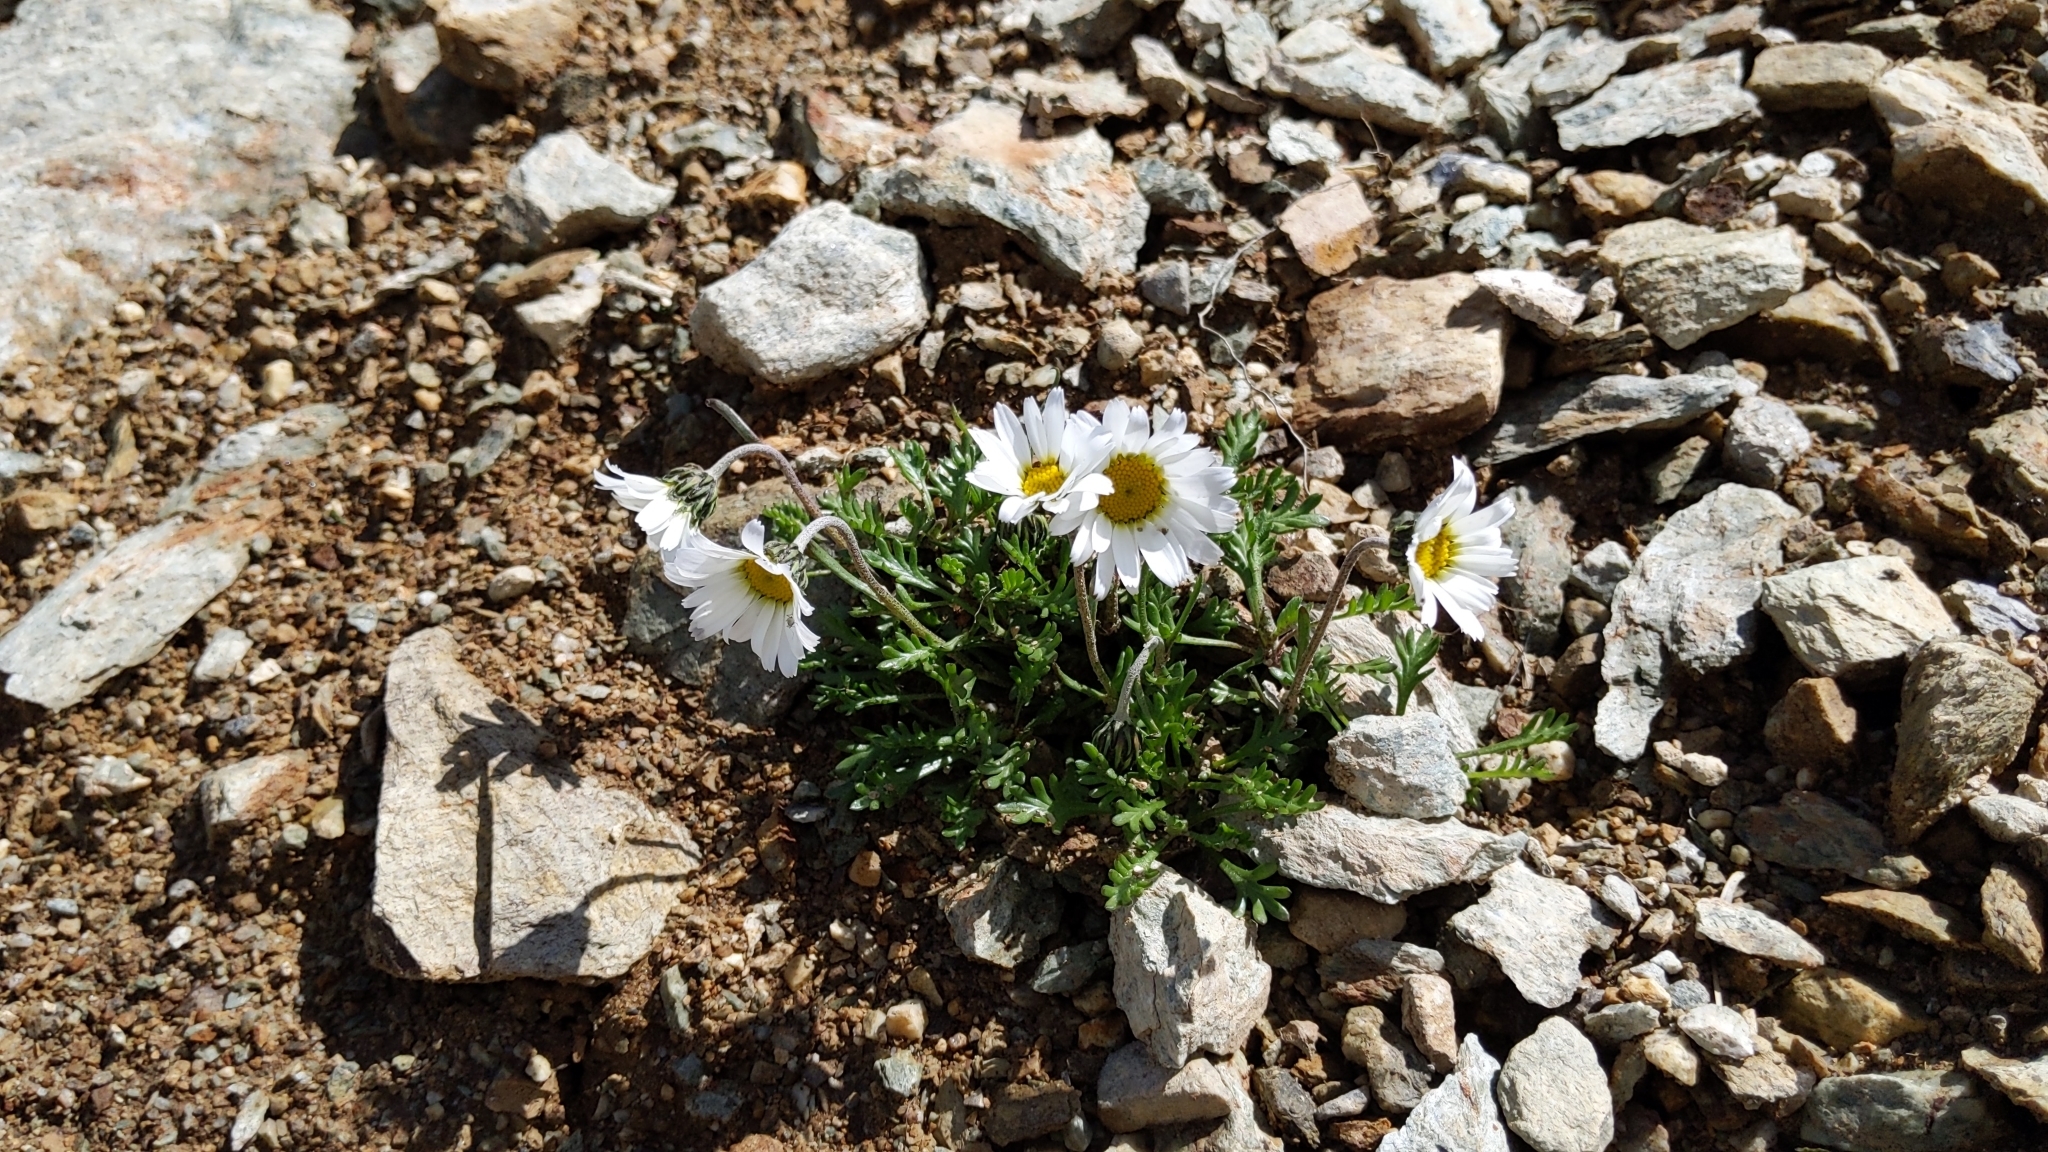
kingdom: Plantae
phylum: Tracheophyta
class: Magnoliopsida
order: Asterales
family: Asteraceae
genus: Leucanthemopsis
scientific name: Leucanthemopsis alpina
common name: Alpine moon daisy
